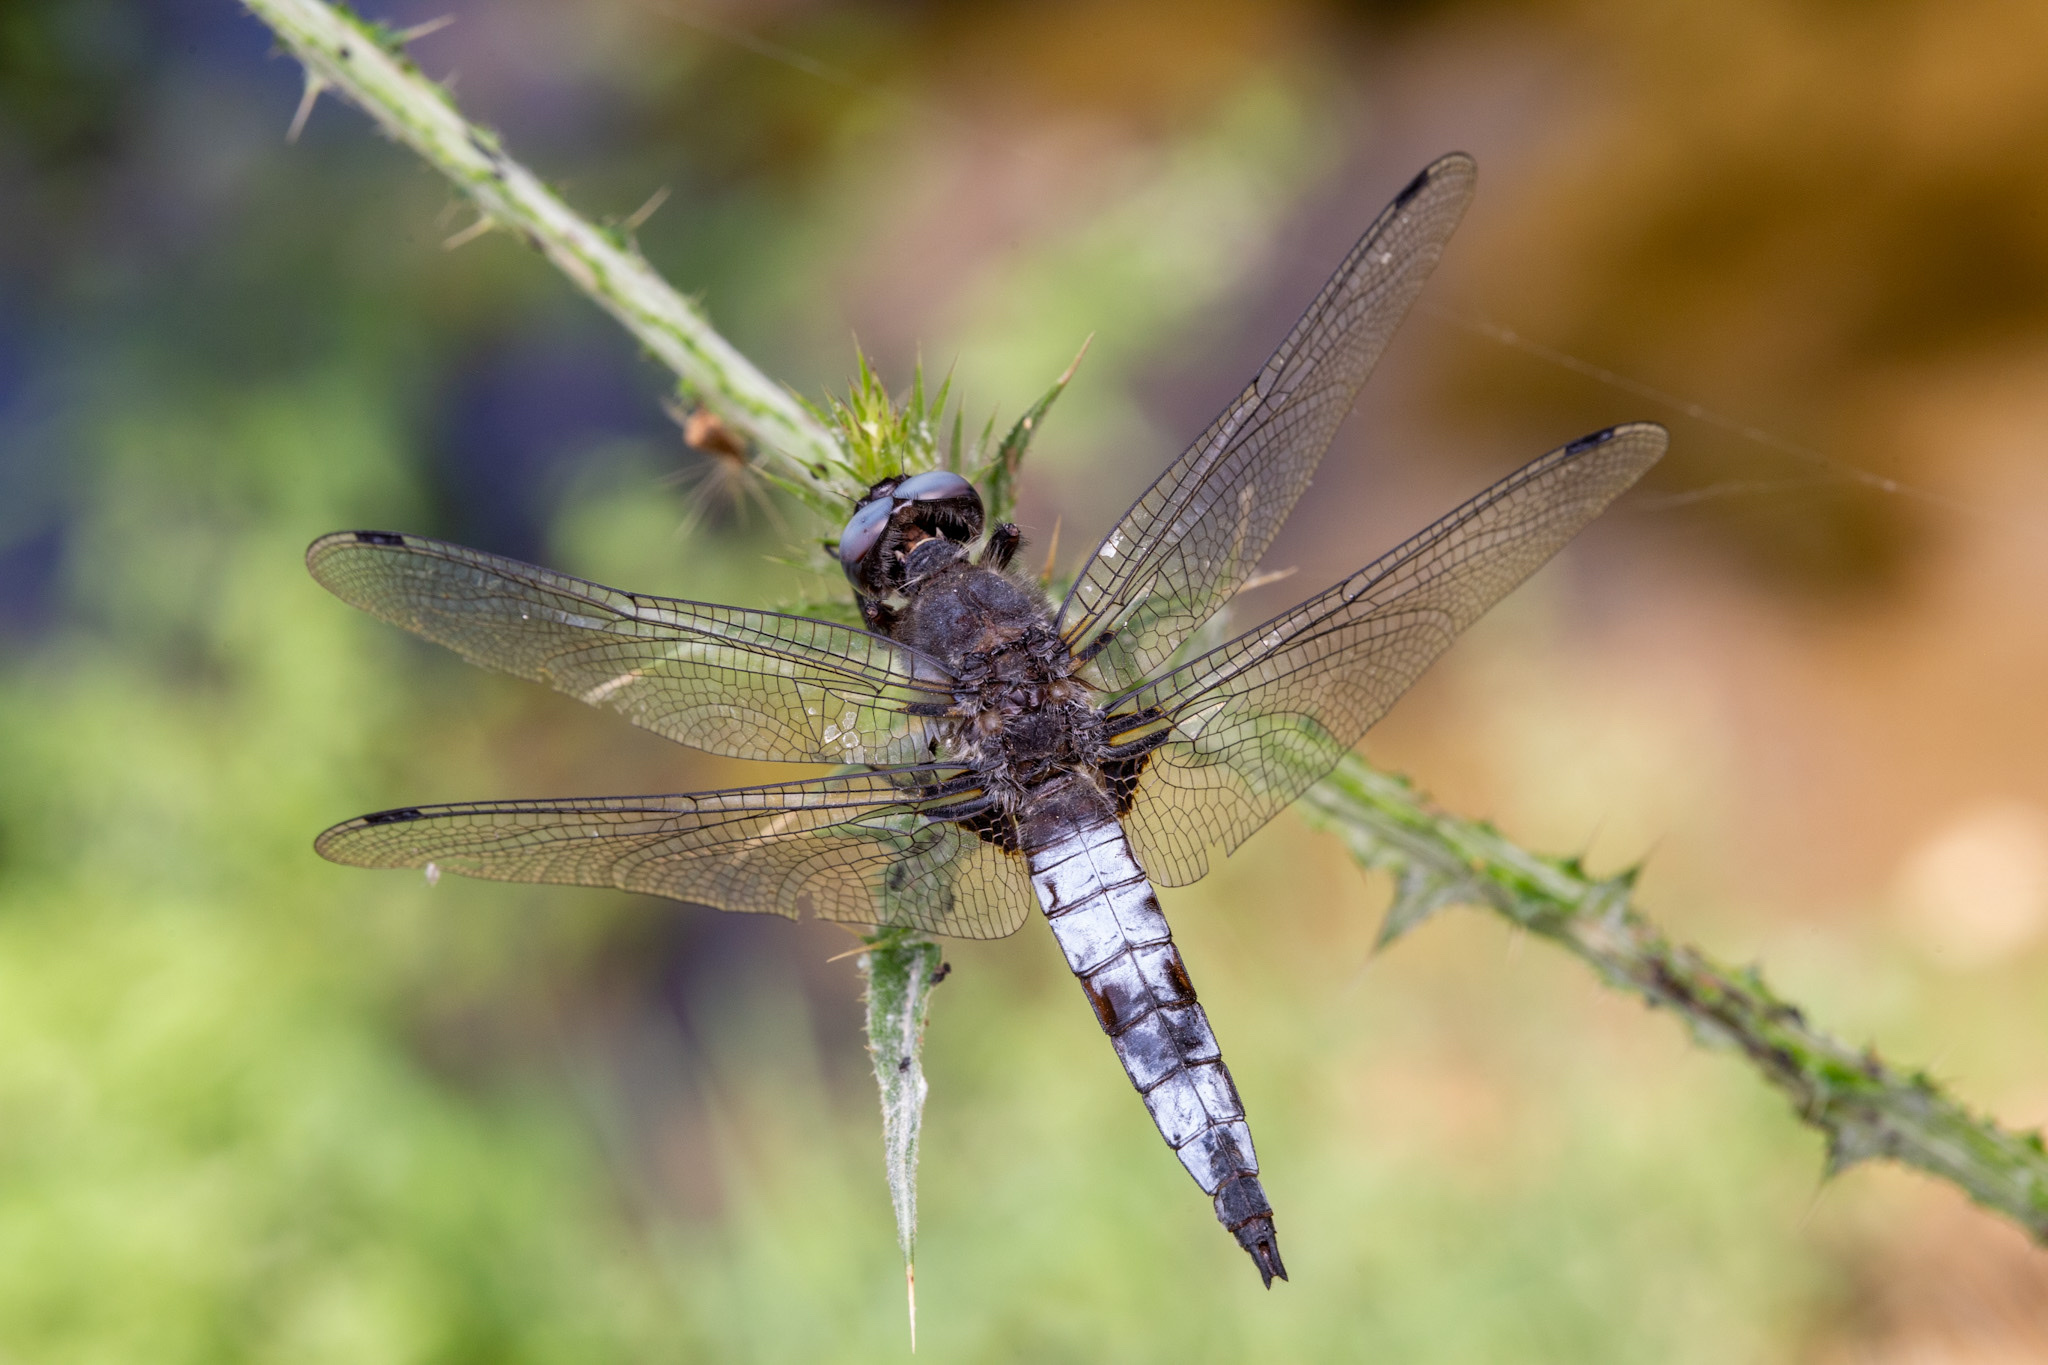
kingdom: Animalia
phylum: Arthropoda
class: Insecta
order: Odonata
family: Libellulidae
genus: Libellula
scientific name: Libellula fulva
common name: Blue chaser
